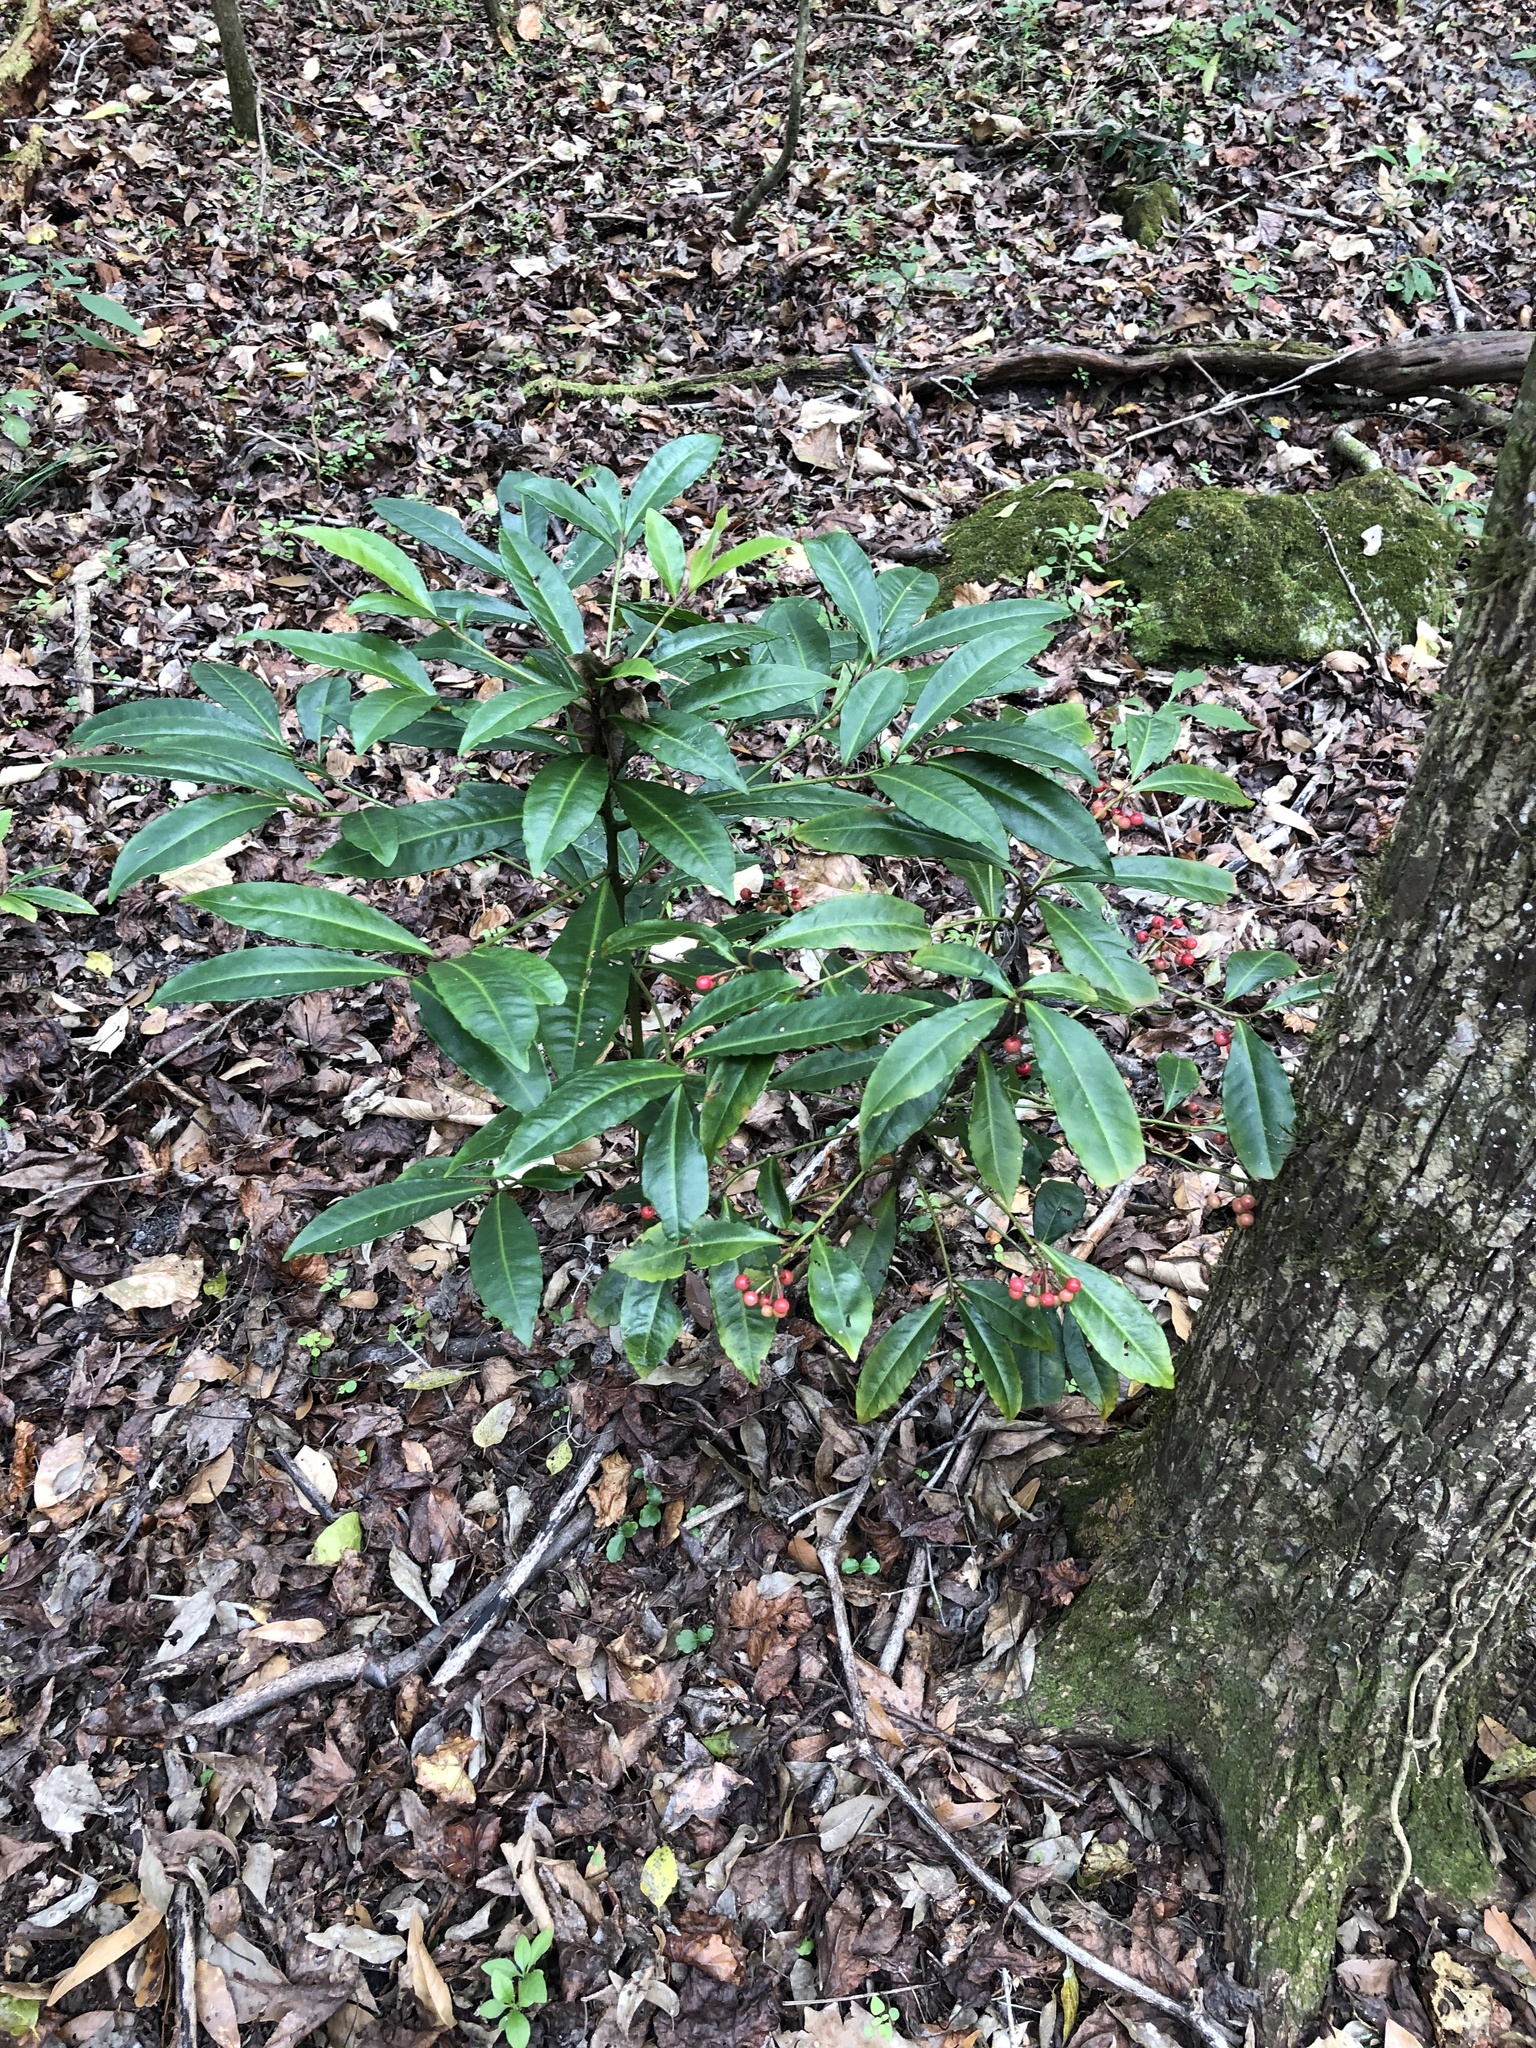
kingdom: Plantae
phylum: Tracheophyta
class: Magnoliopsida
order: Ericales
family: Primulaceae
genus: Ardisia
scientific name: Ardisia crenata
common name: Hen's eyes
